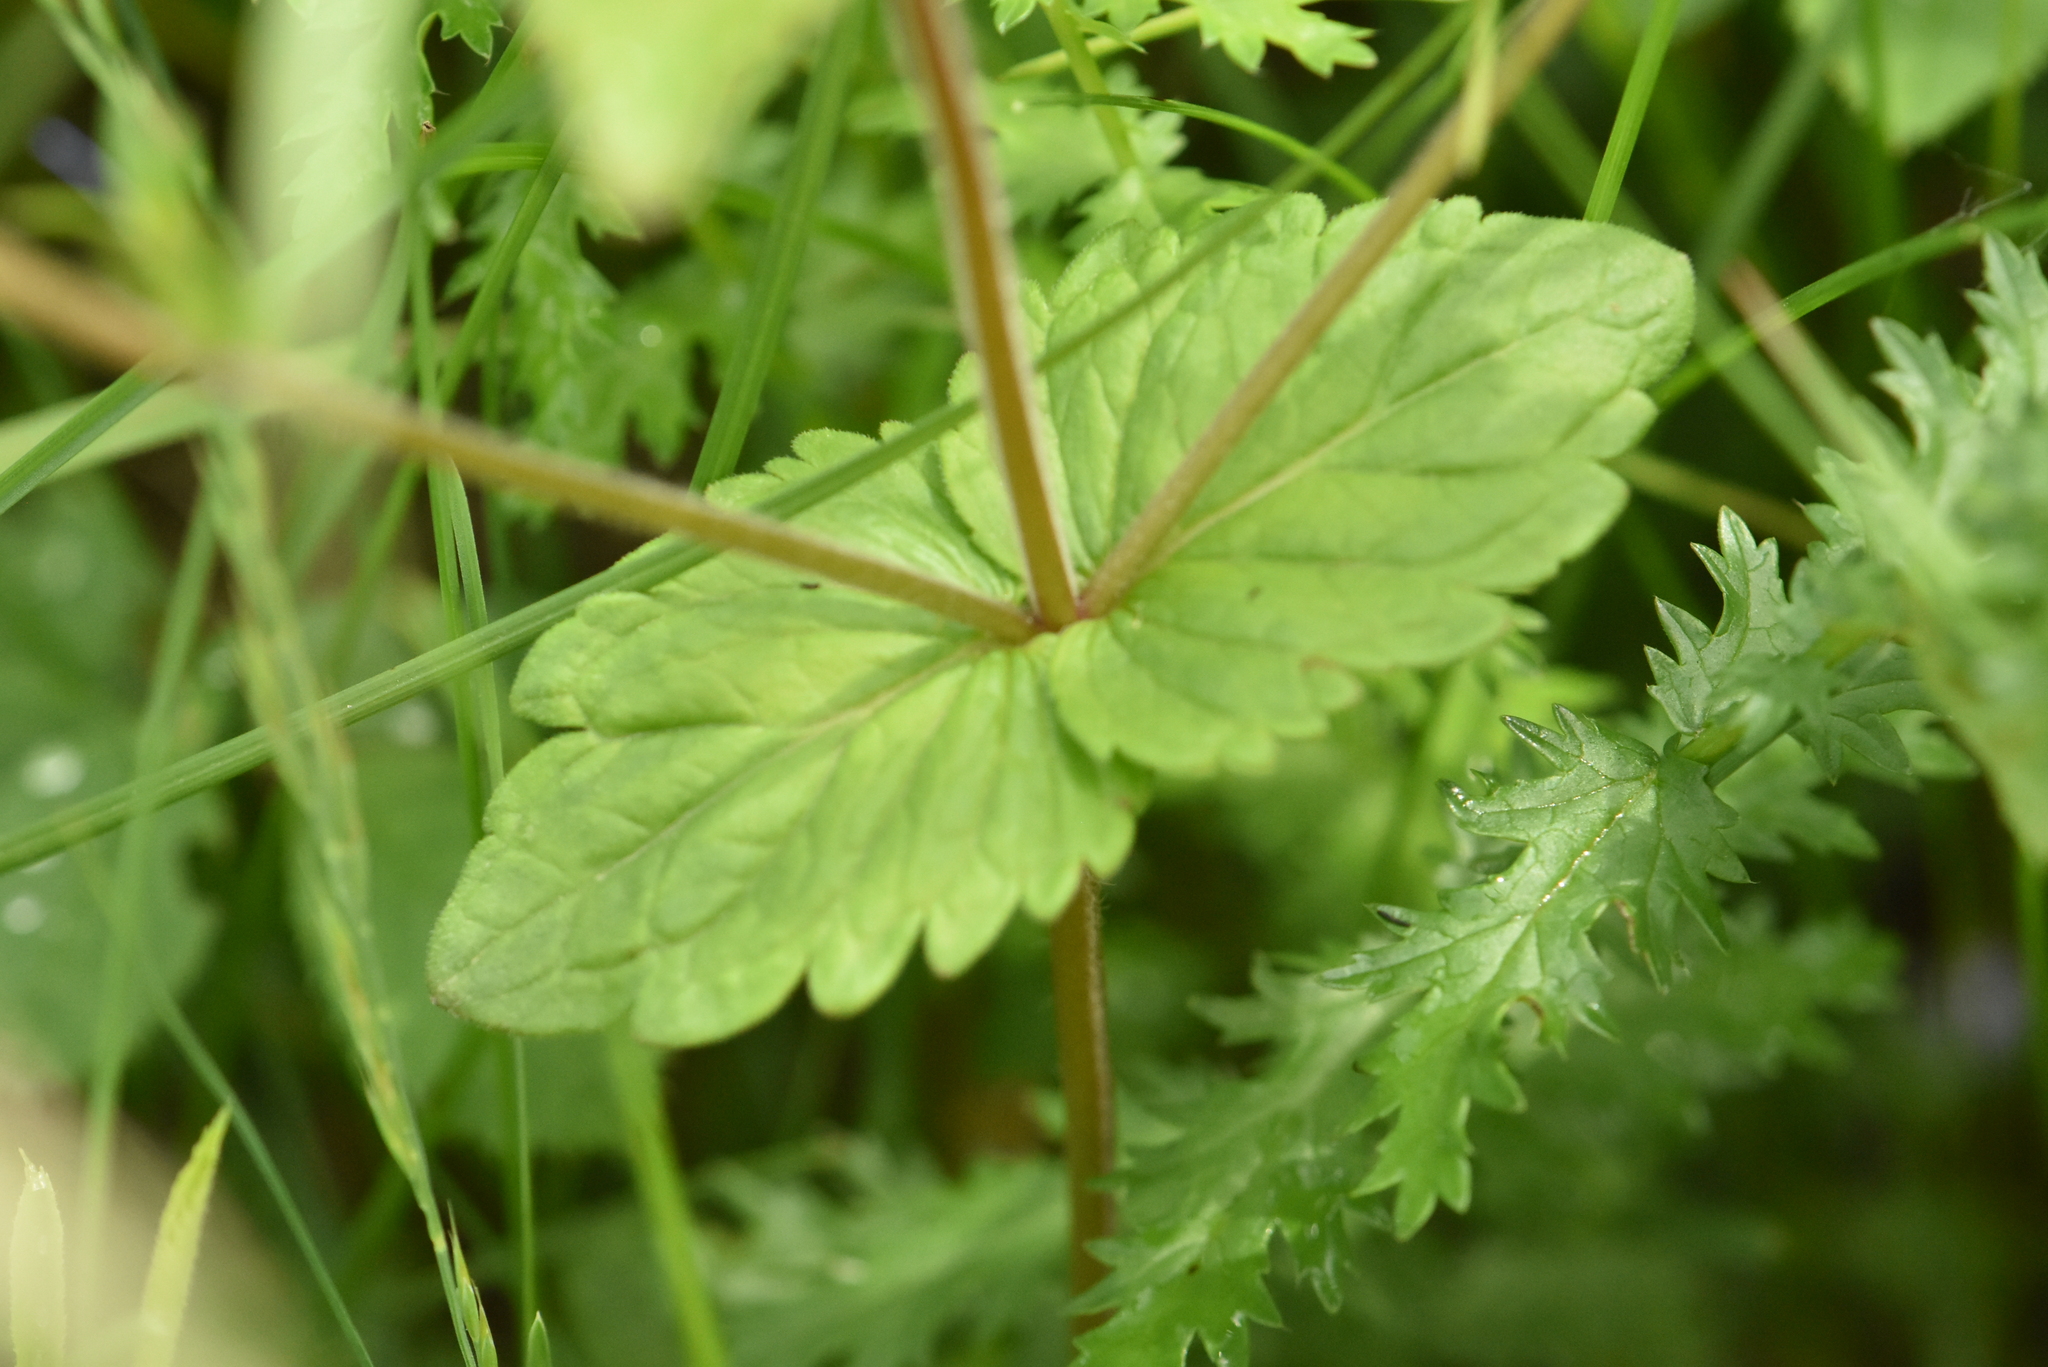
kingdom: Plantae
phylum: Tracheophyta
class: Magnoliopsida
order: Lamiales
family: Plantaginaceae
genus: Veronica
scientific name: Veronica chamaedrys
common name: Germander speedwell
